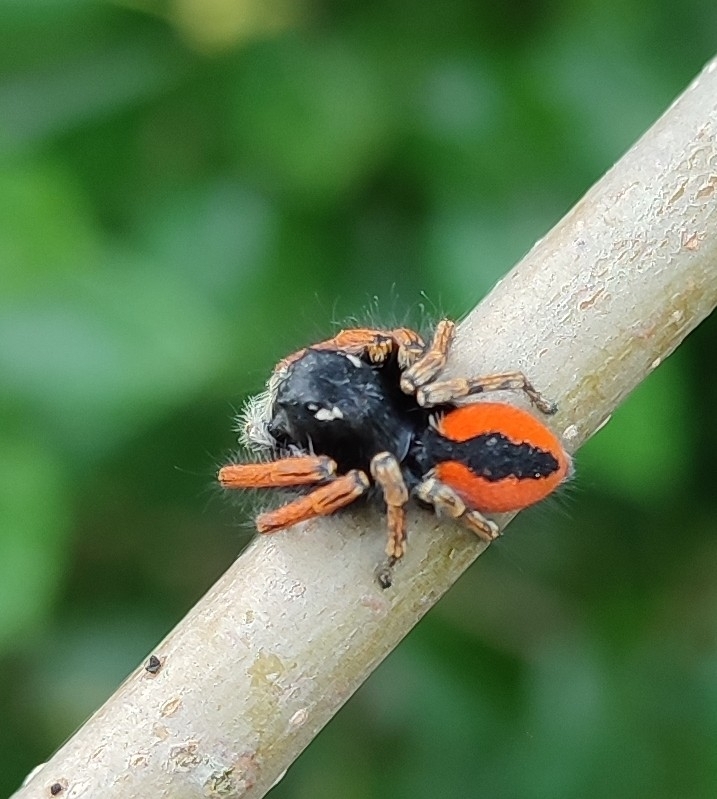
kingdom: Animalia
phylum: Arthropoda
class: Arachnida
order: Araneae
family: Salticidae
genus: Philaeus
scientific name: Philaeus chrysops
